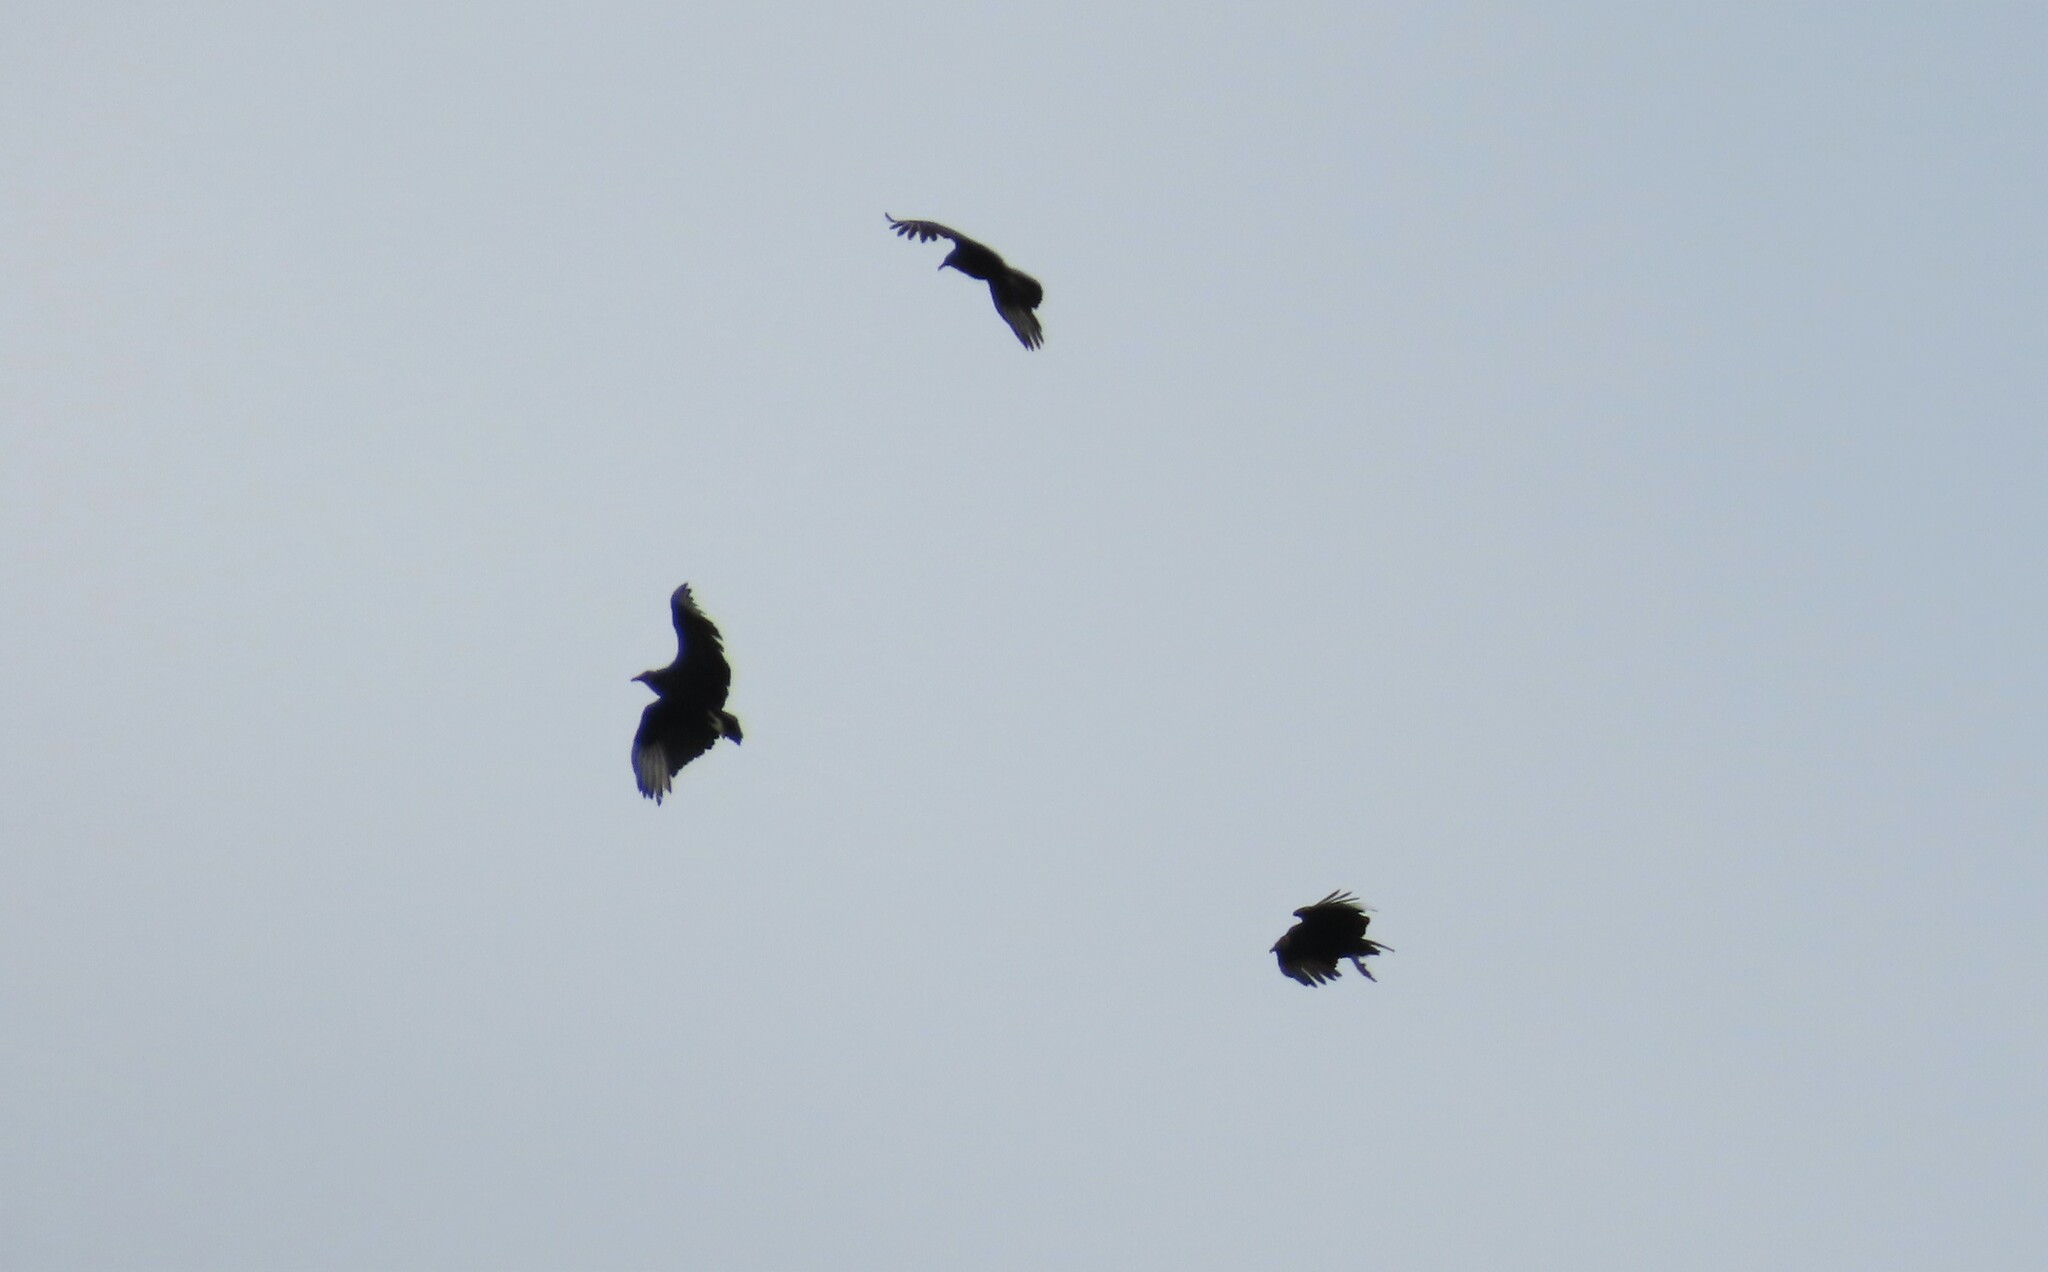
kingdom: Animalia
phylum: Chordata
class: Aves
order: Accipitriformes
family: Cathartidae
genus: Coragyps
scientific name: Coragyps atratus
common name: Black vulture
